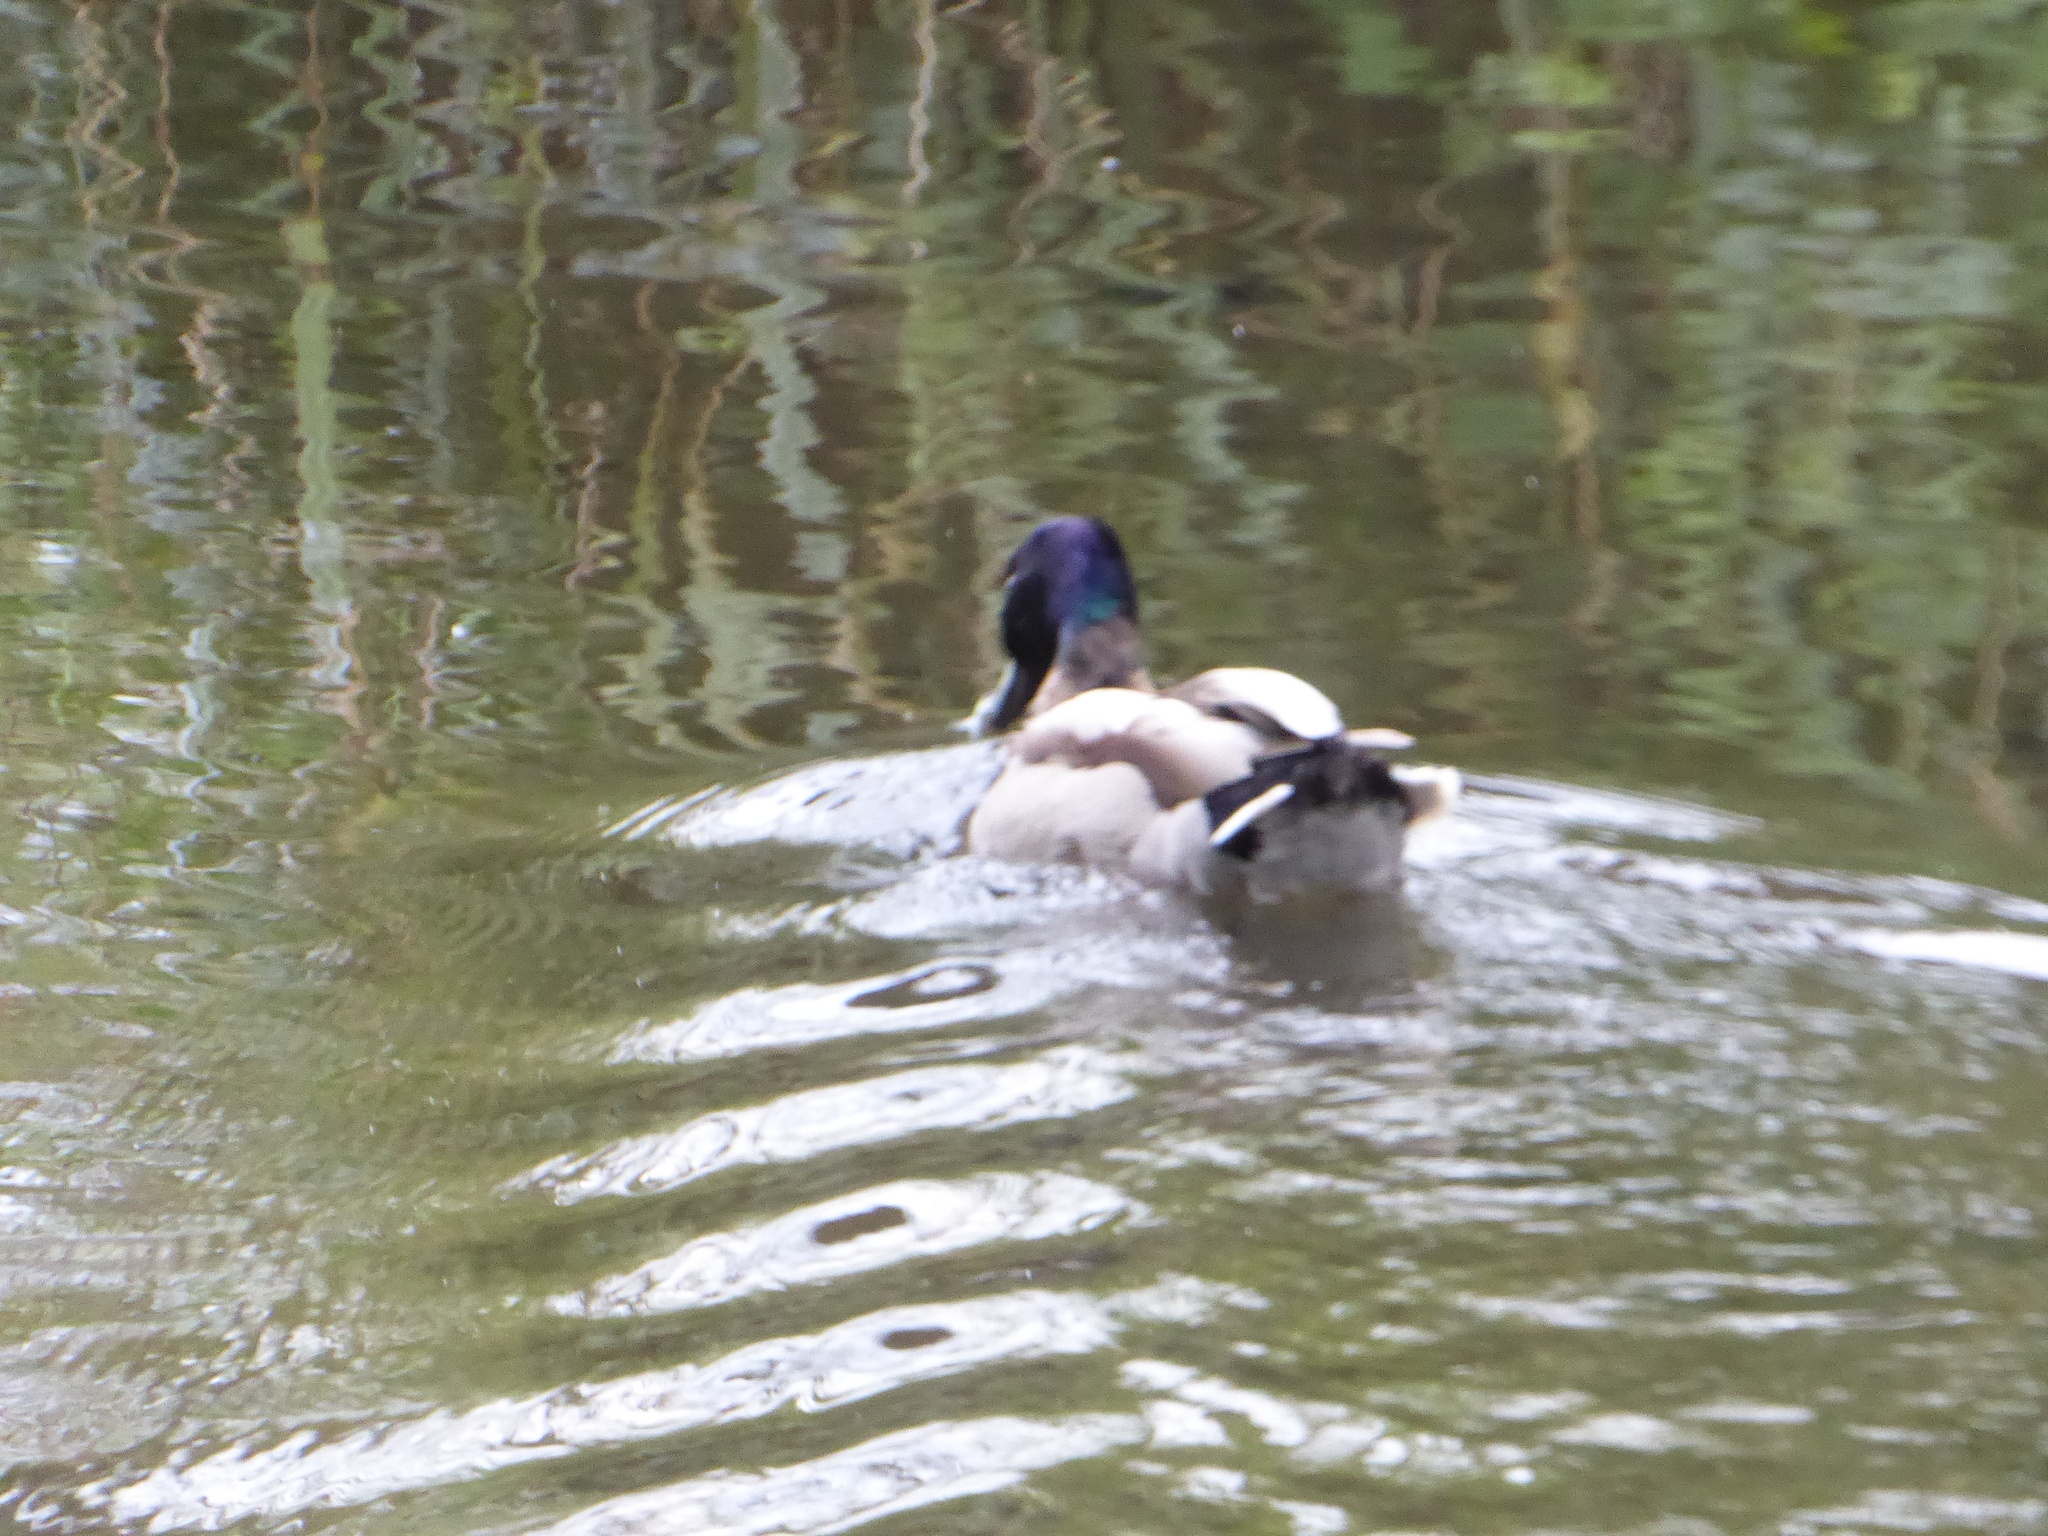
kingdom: Animalia
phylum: Chordata
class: Aves
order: Anseriformes
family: Anatidae
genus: Anas
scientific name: Anas platyrhynchos
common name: Mallard
